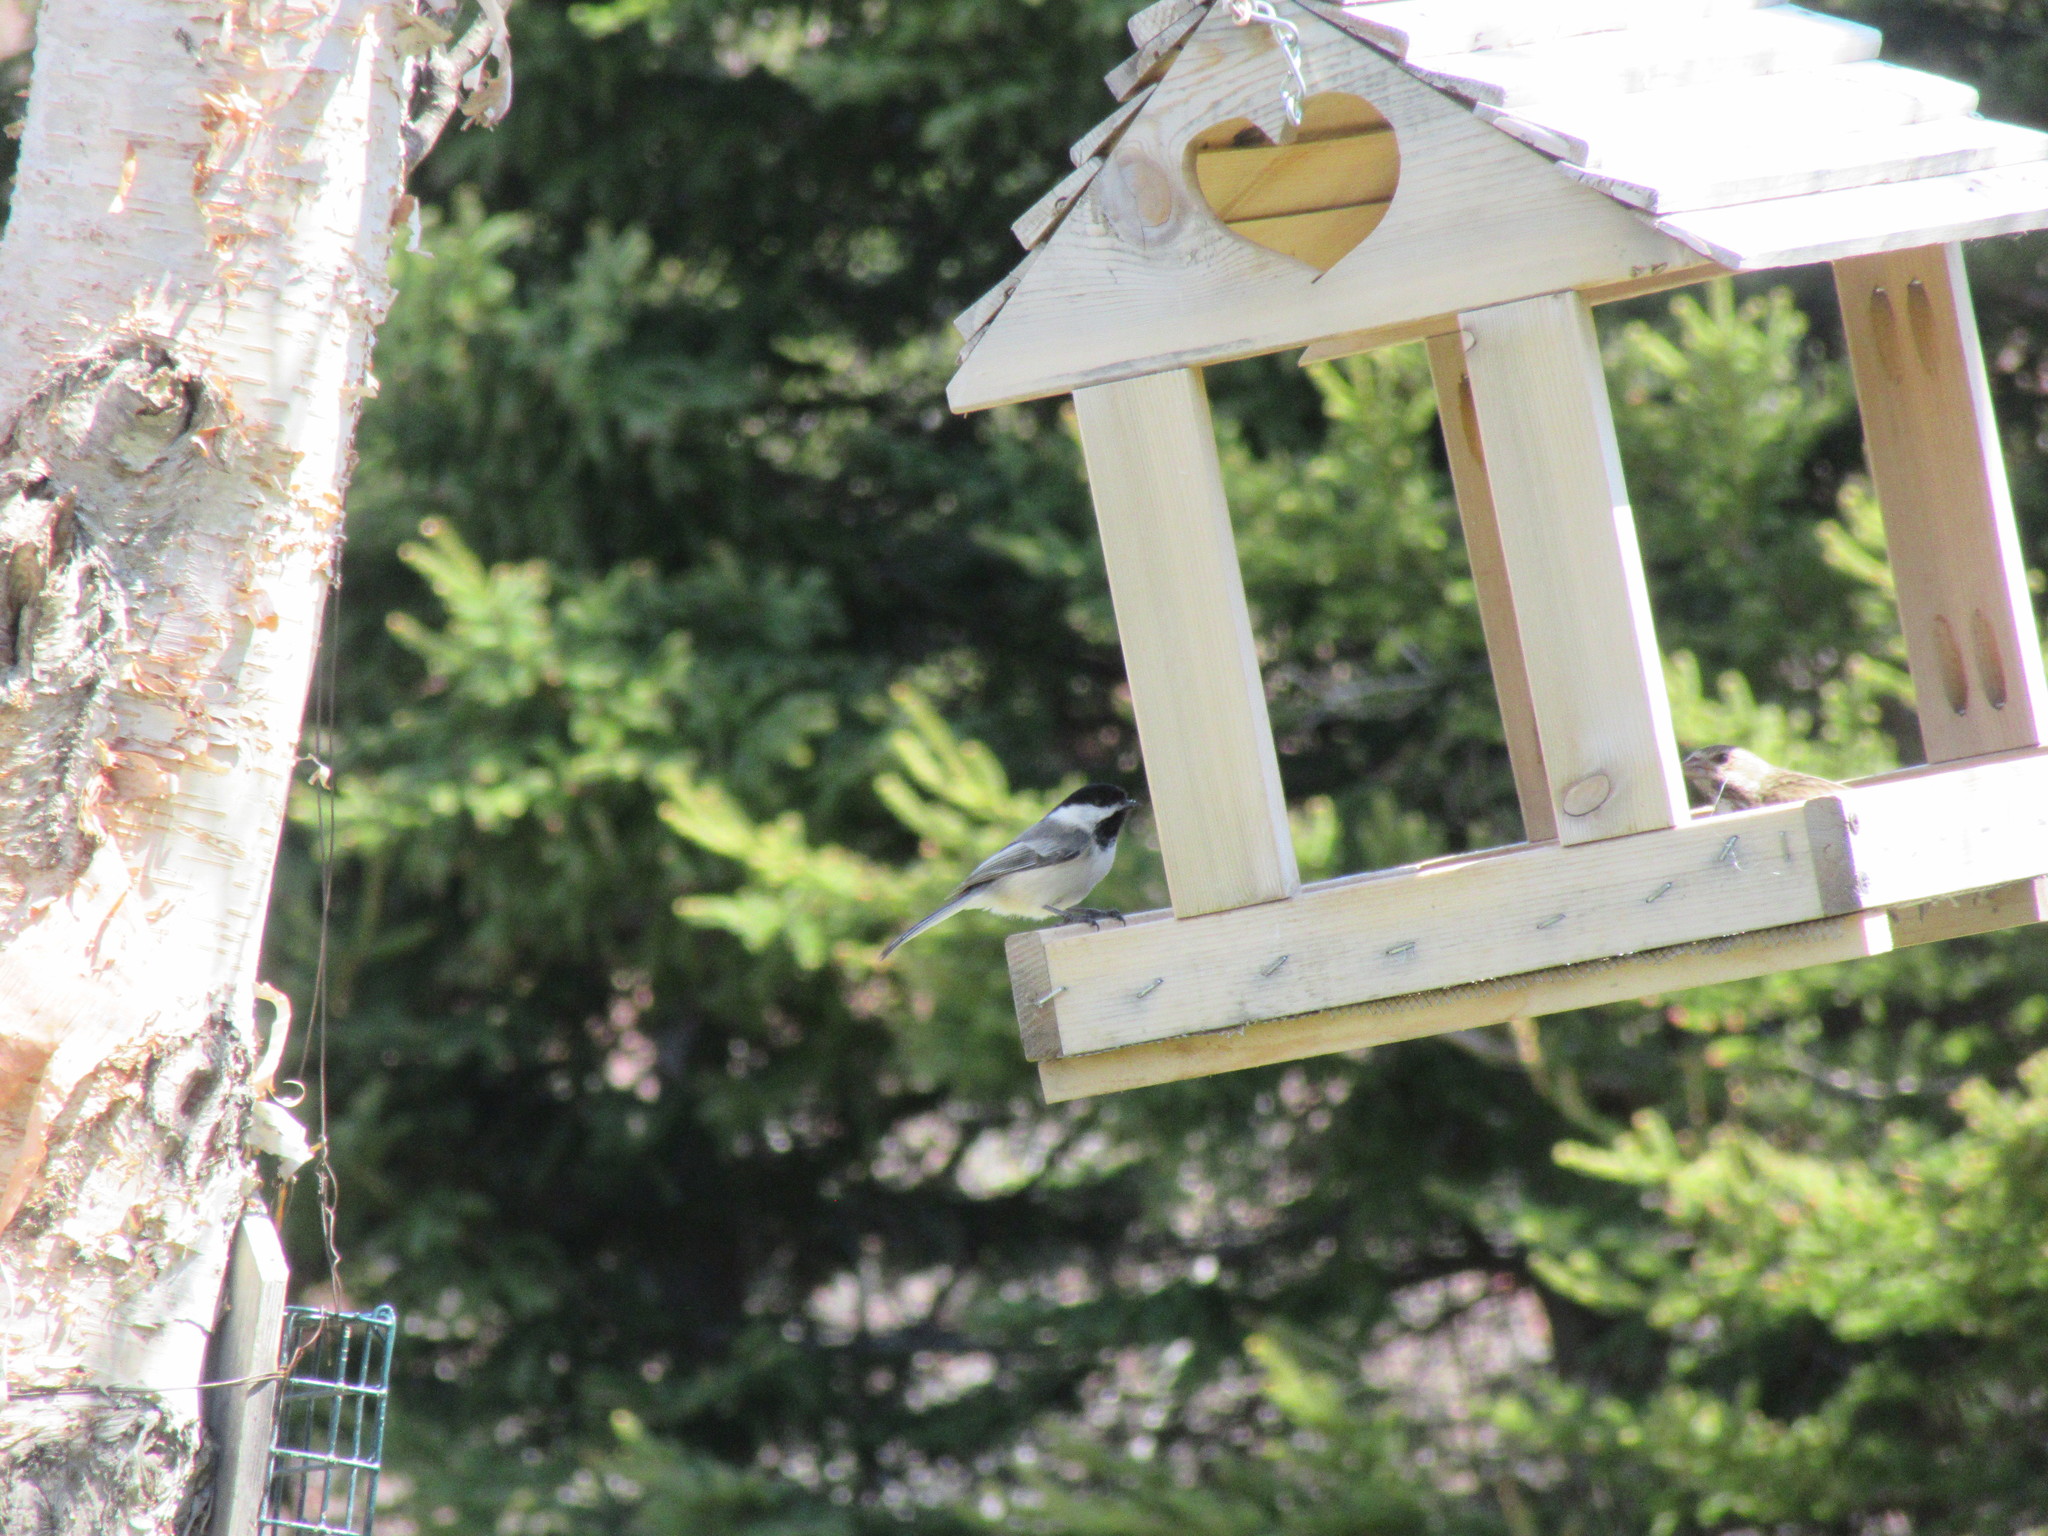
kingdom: Animalia
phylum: Chordata
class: Aves
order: Passeriformes
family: Paridae
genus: Poecile
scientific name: Poecile atricapillus
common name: Black-capped chickadee
